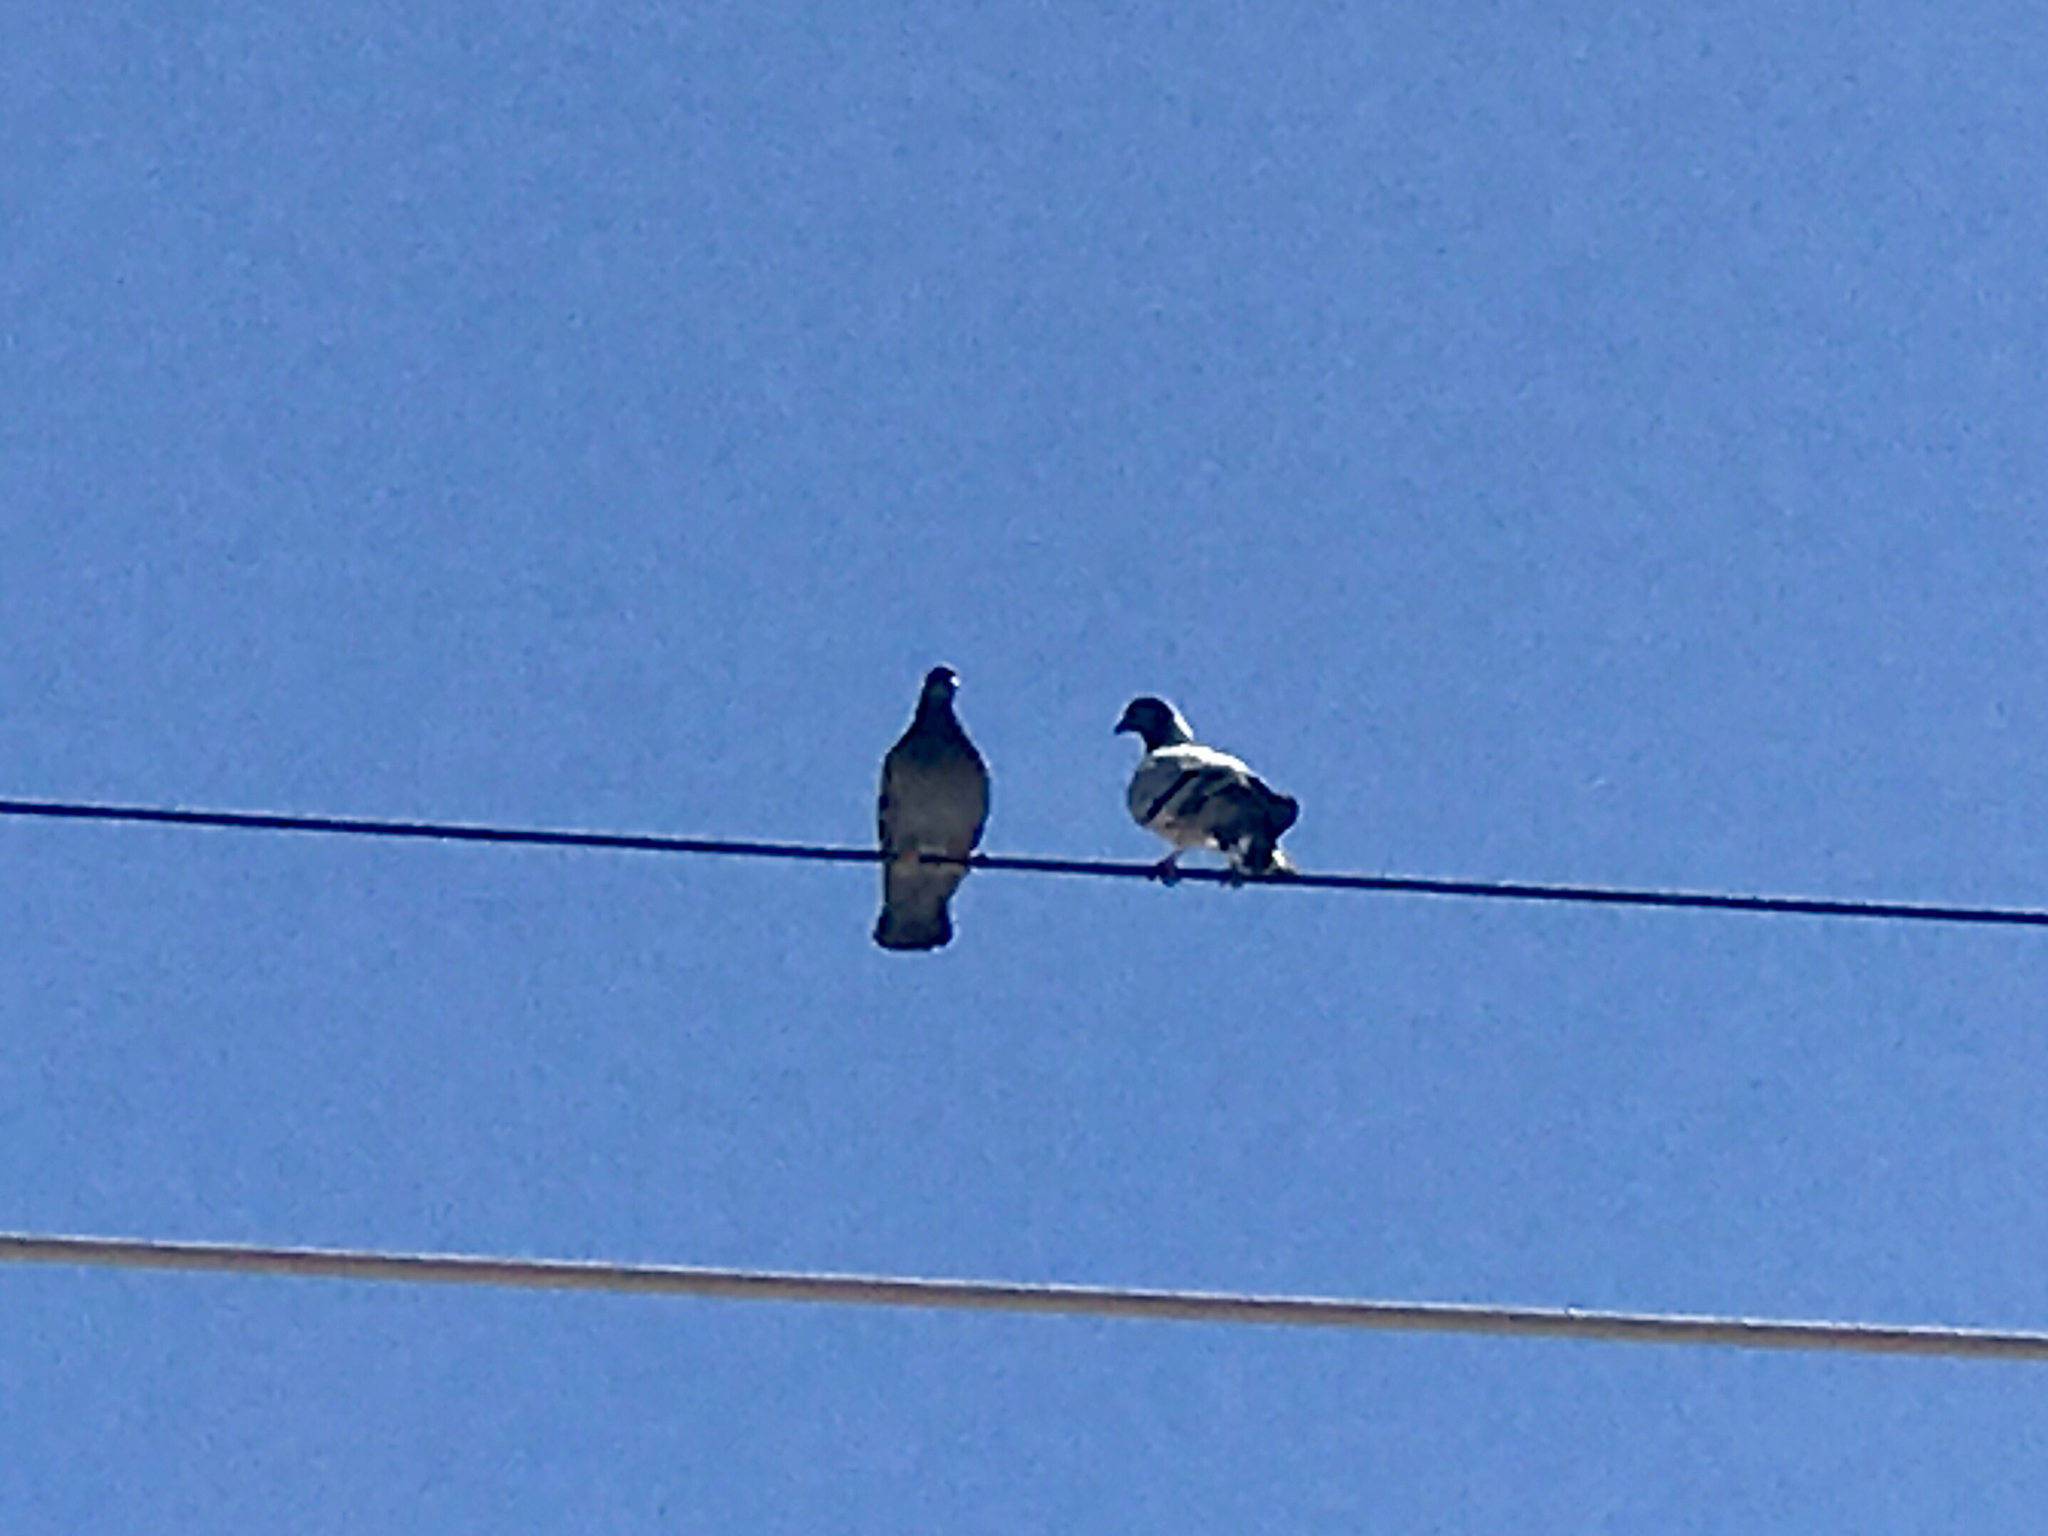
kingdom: Animalia
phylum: Chordata
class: Aves
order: Columbiformes
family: Columbidae
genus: Columba
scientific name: Columba livia
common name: Rock pigeon
